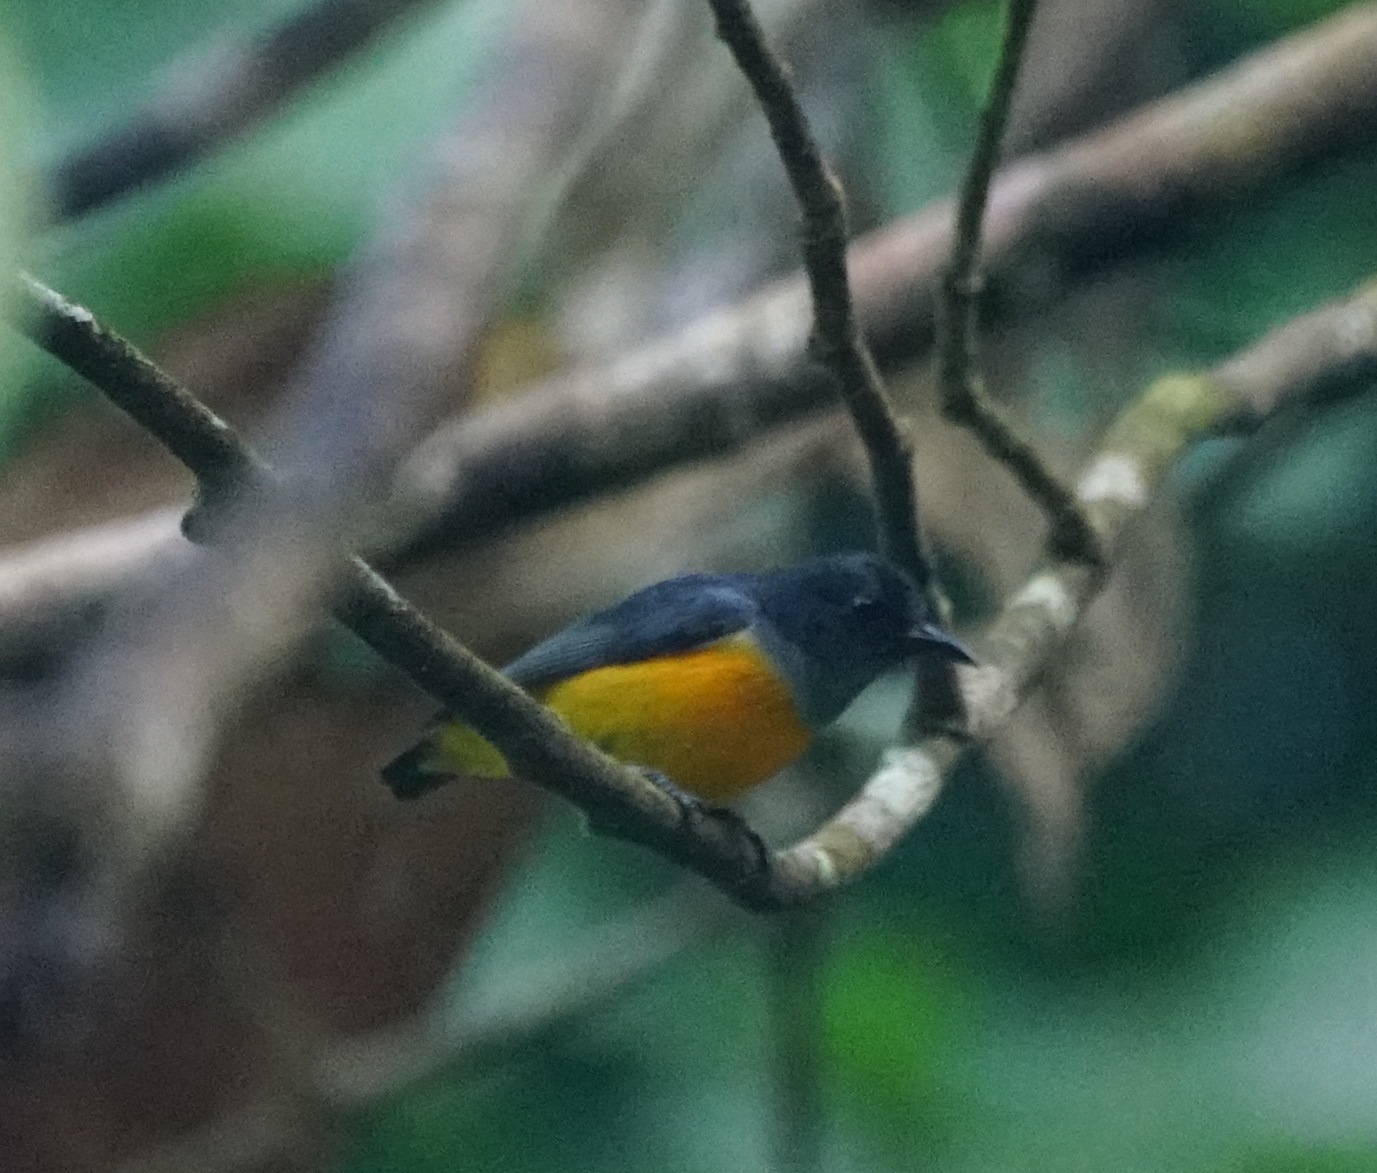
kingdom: Animalia
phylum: Chordata
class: Aves
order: Passeriformes
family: Dicaeidae
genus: Dicaeum
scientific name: Dicaeum trigonostigma
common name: Orange-bellied flowerpecker
